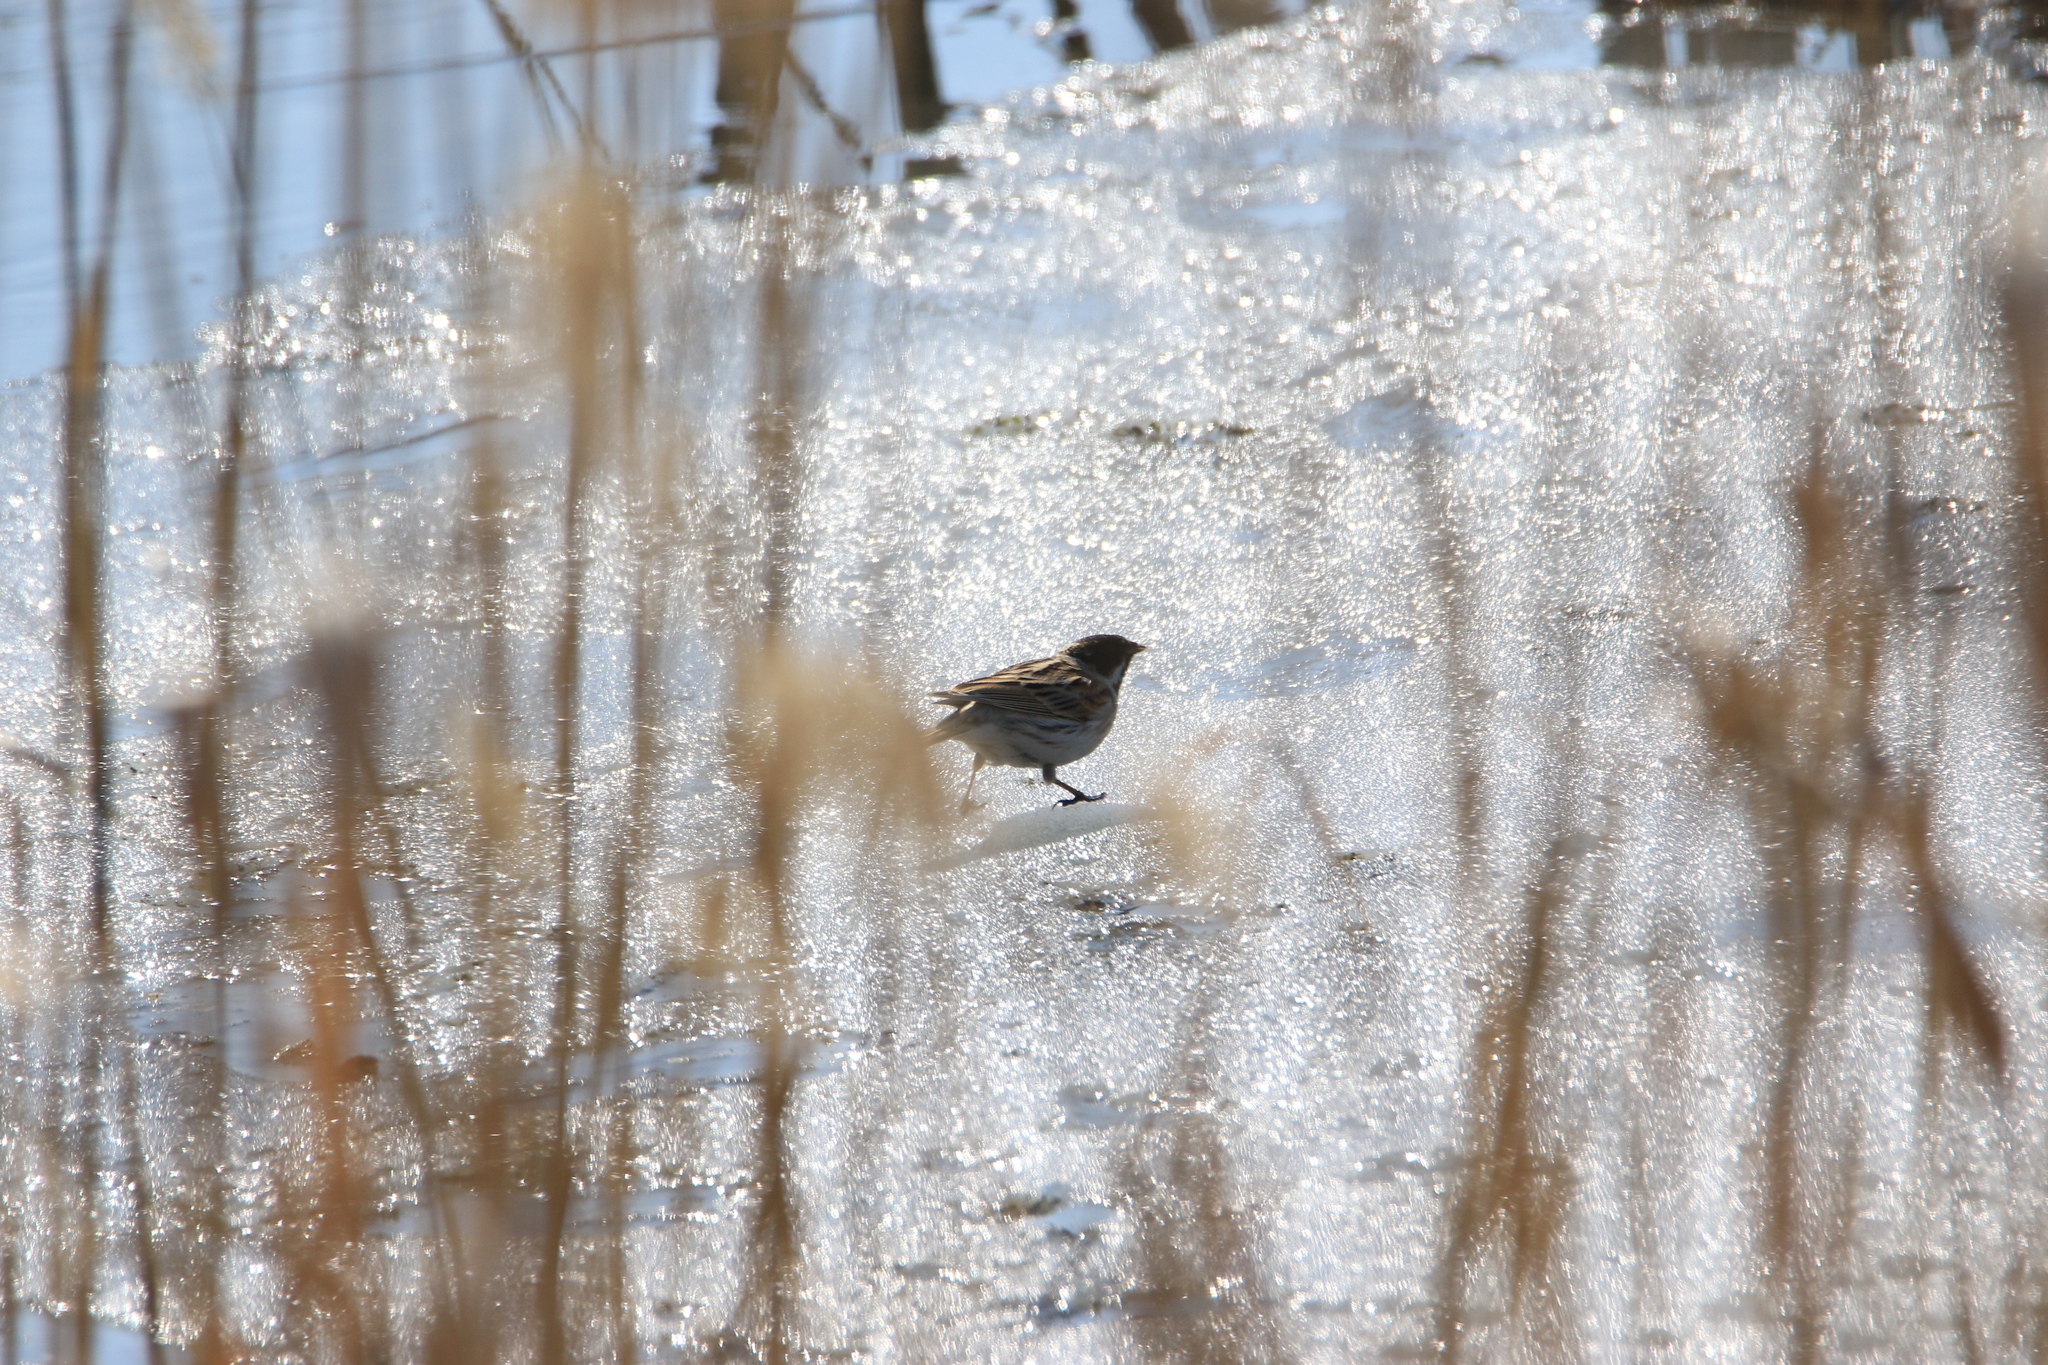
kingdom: Animalia
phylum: Chordata
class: Aves
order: Passeriformes
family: Emberizidae
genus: Emberiza
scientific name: Emberiza schoeniclus
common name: Reed bunting
